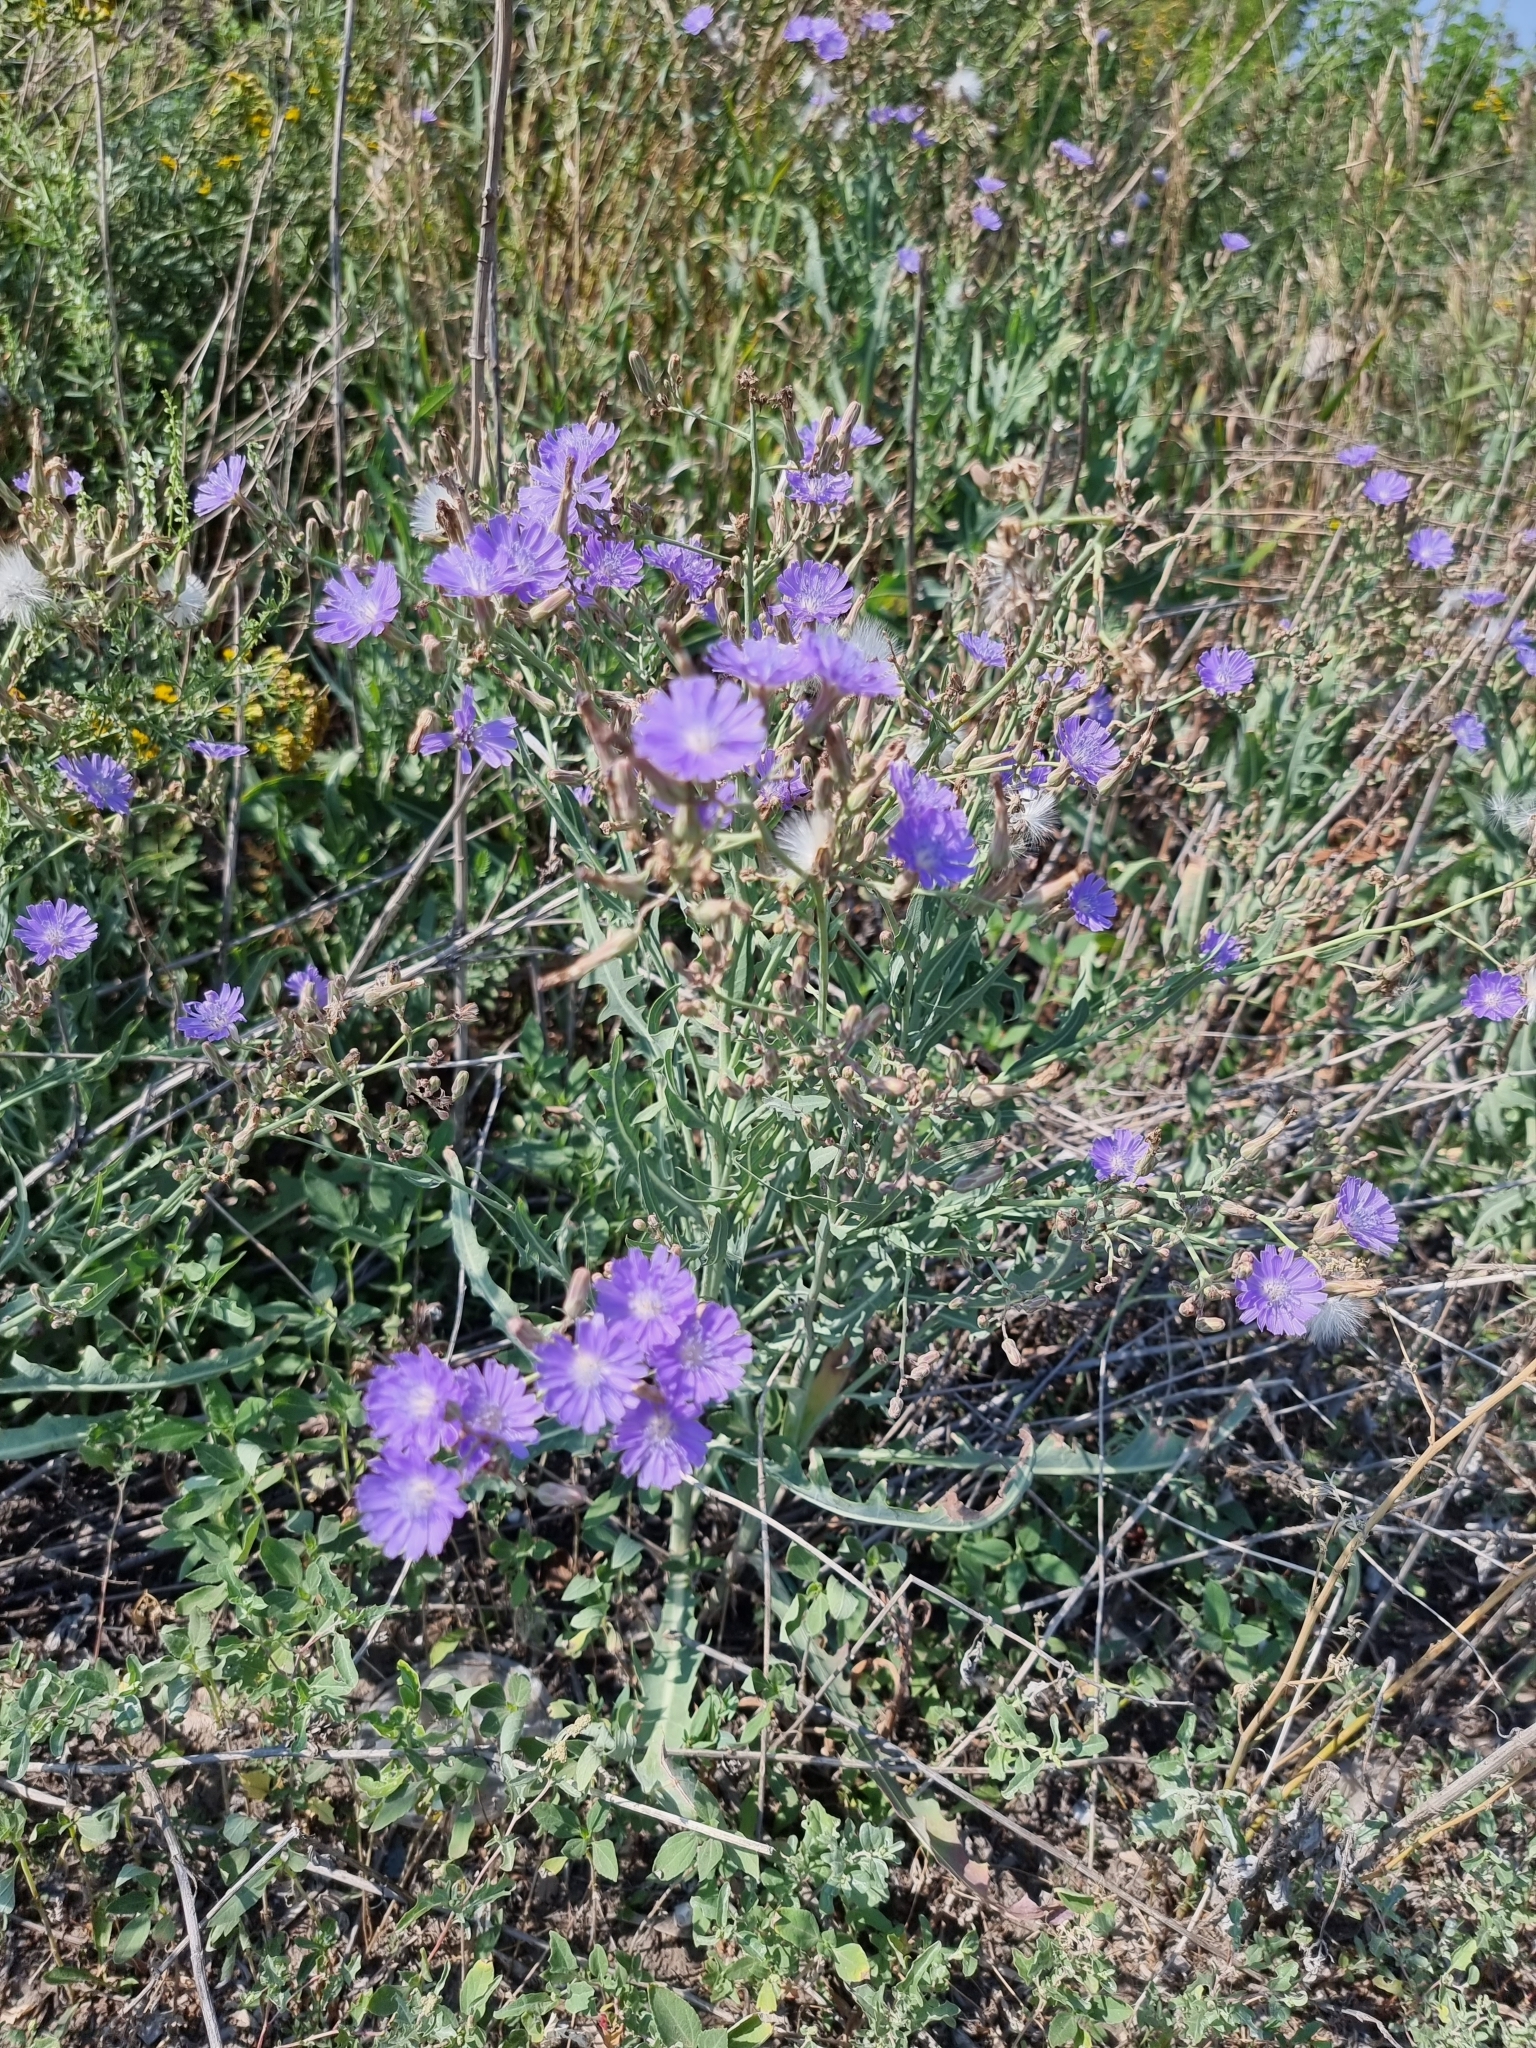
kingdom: Plantae
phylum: Tracheophyta
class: Magnoliopsida
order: Asterales
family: Asteraceae
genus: Lactuca
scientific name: Lactuca tatarica
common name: Blue lettuce
